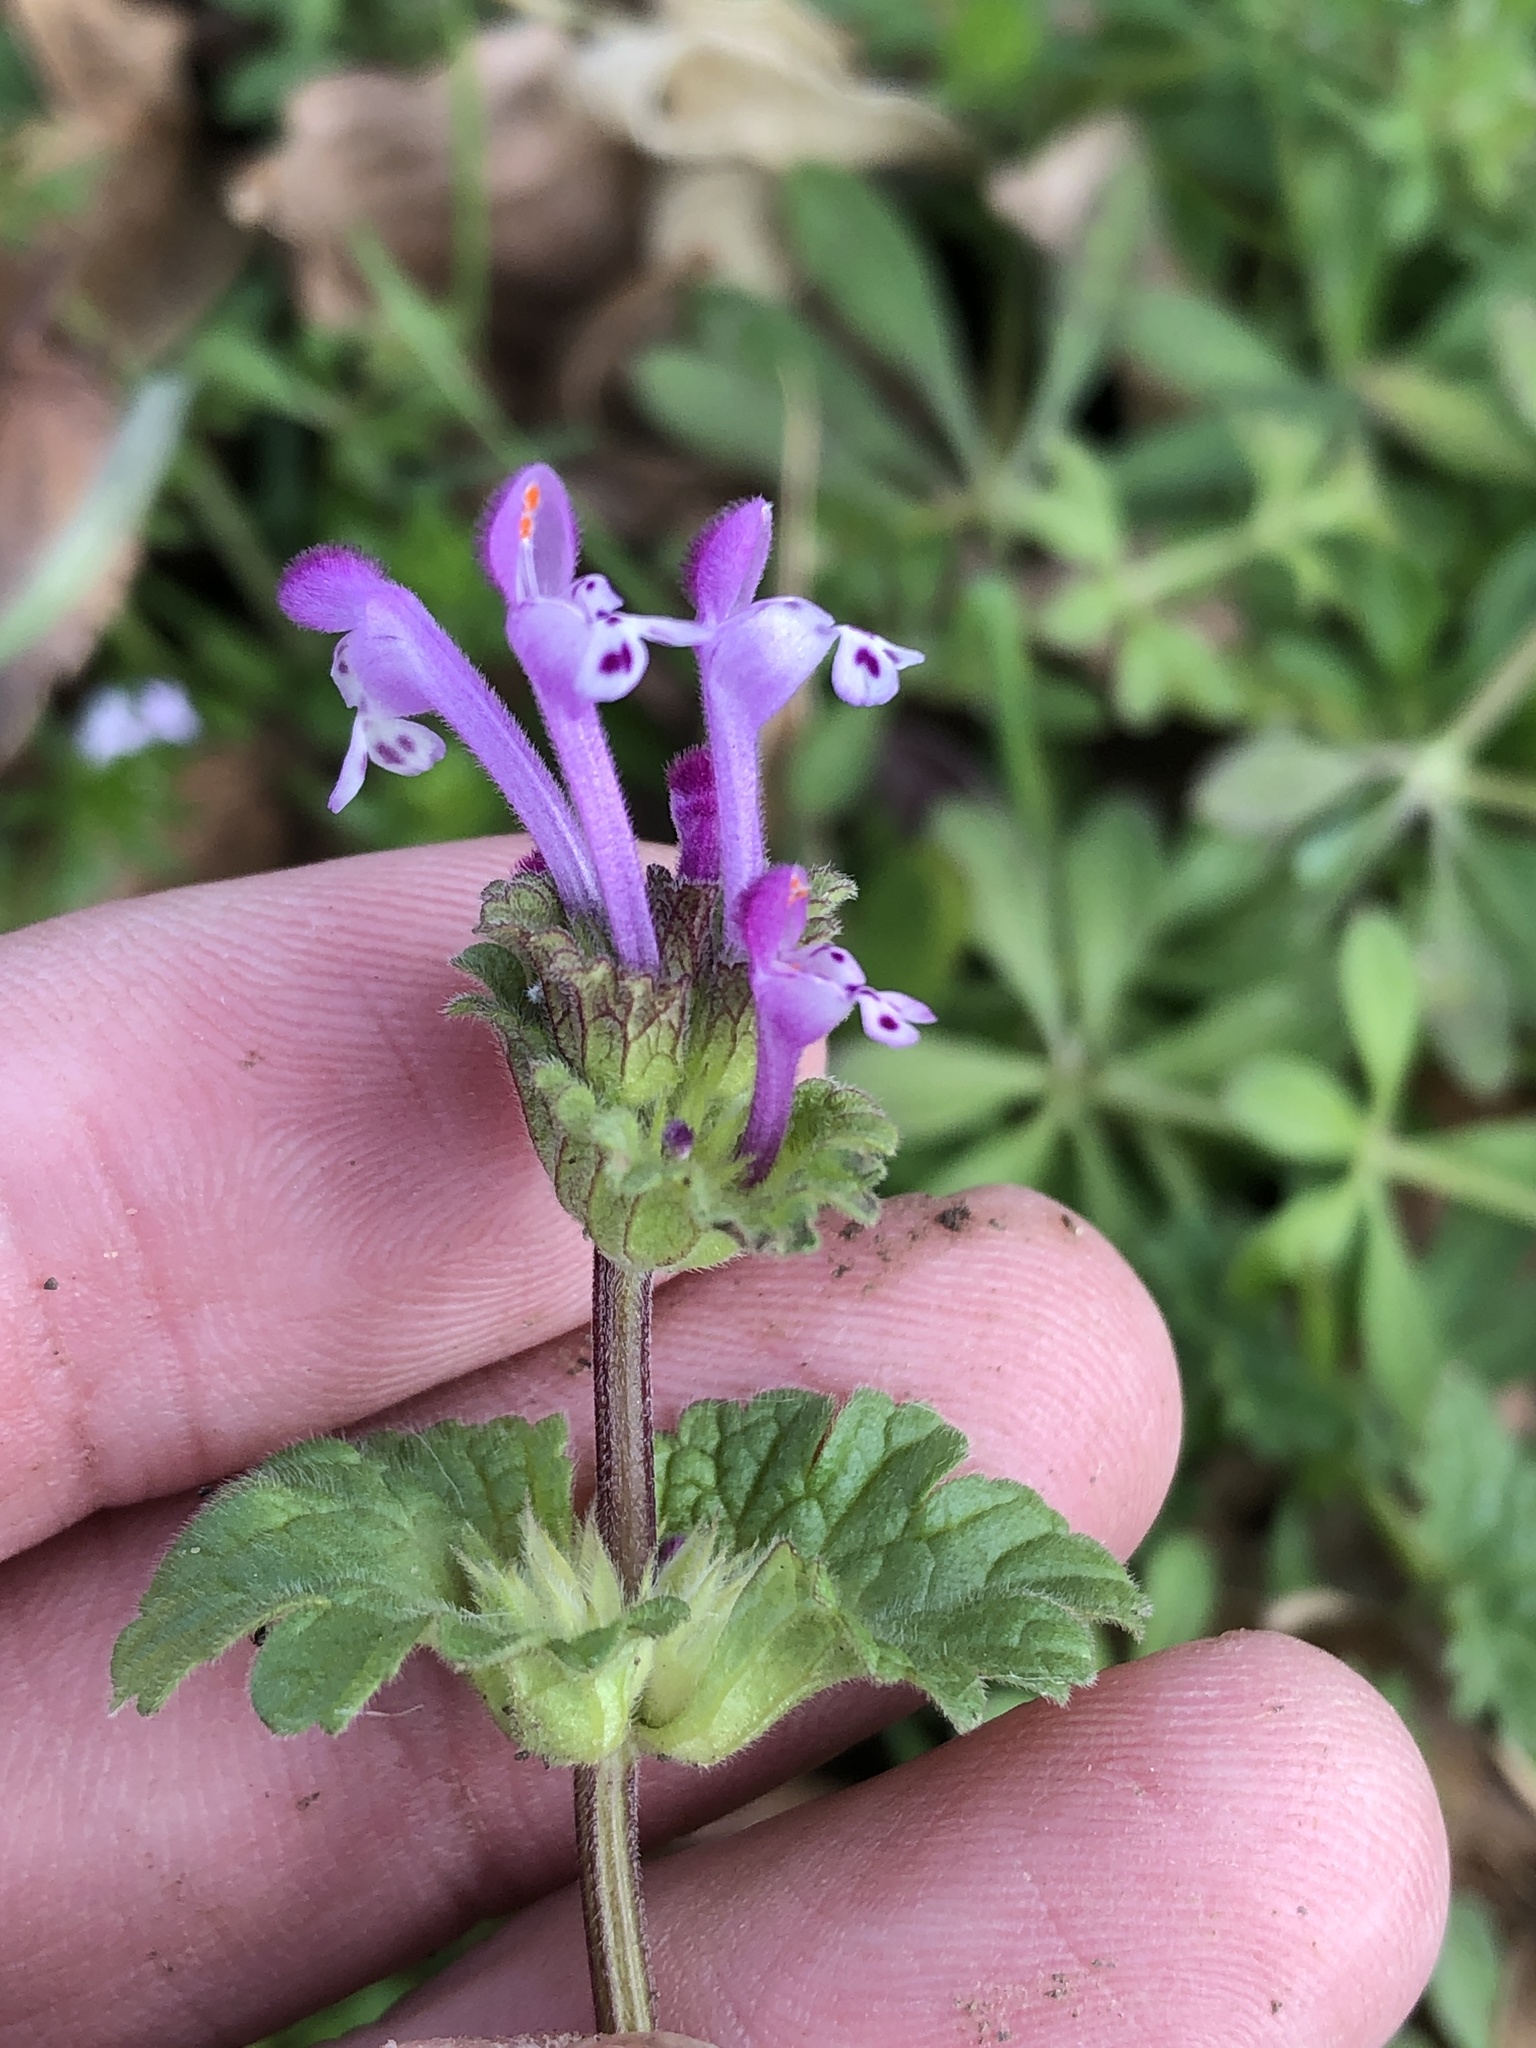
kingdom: Plantae
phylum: Tracheophyta
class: Magnoliopsida
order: Lamiales
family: Lamiaceae
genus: Lamium
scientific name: Lamium amplexicaule
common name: Henbit dead-nettle
